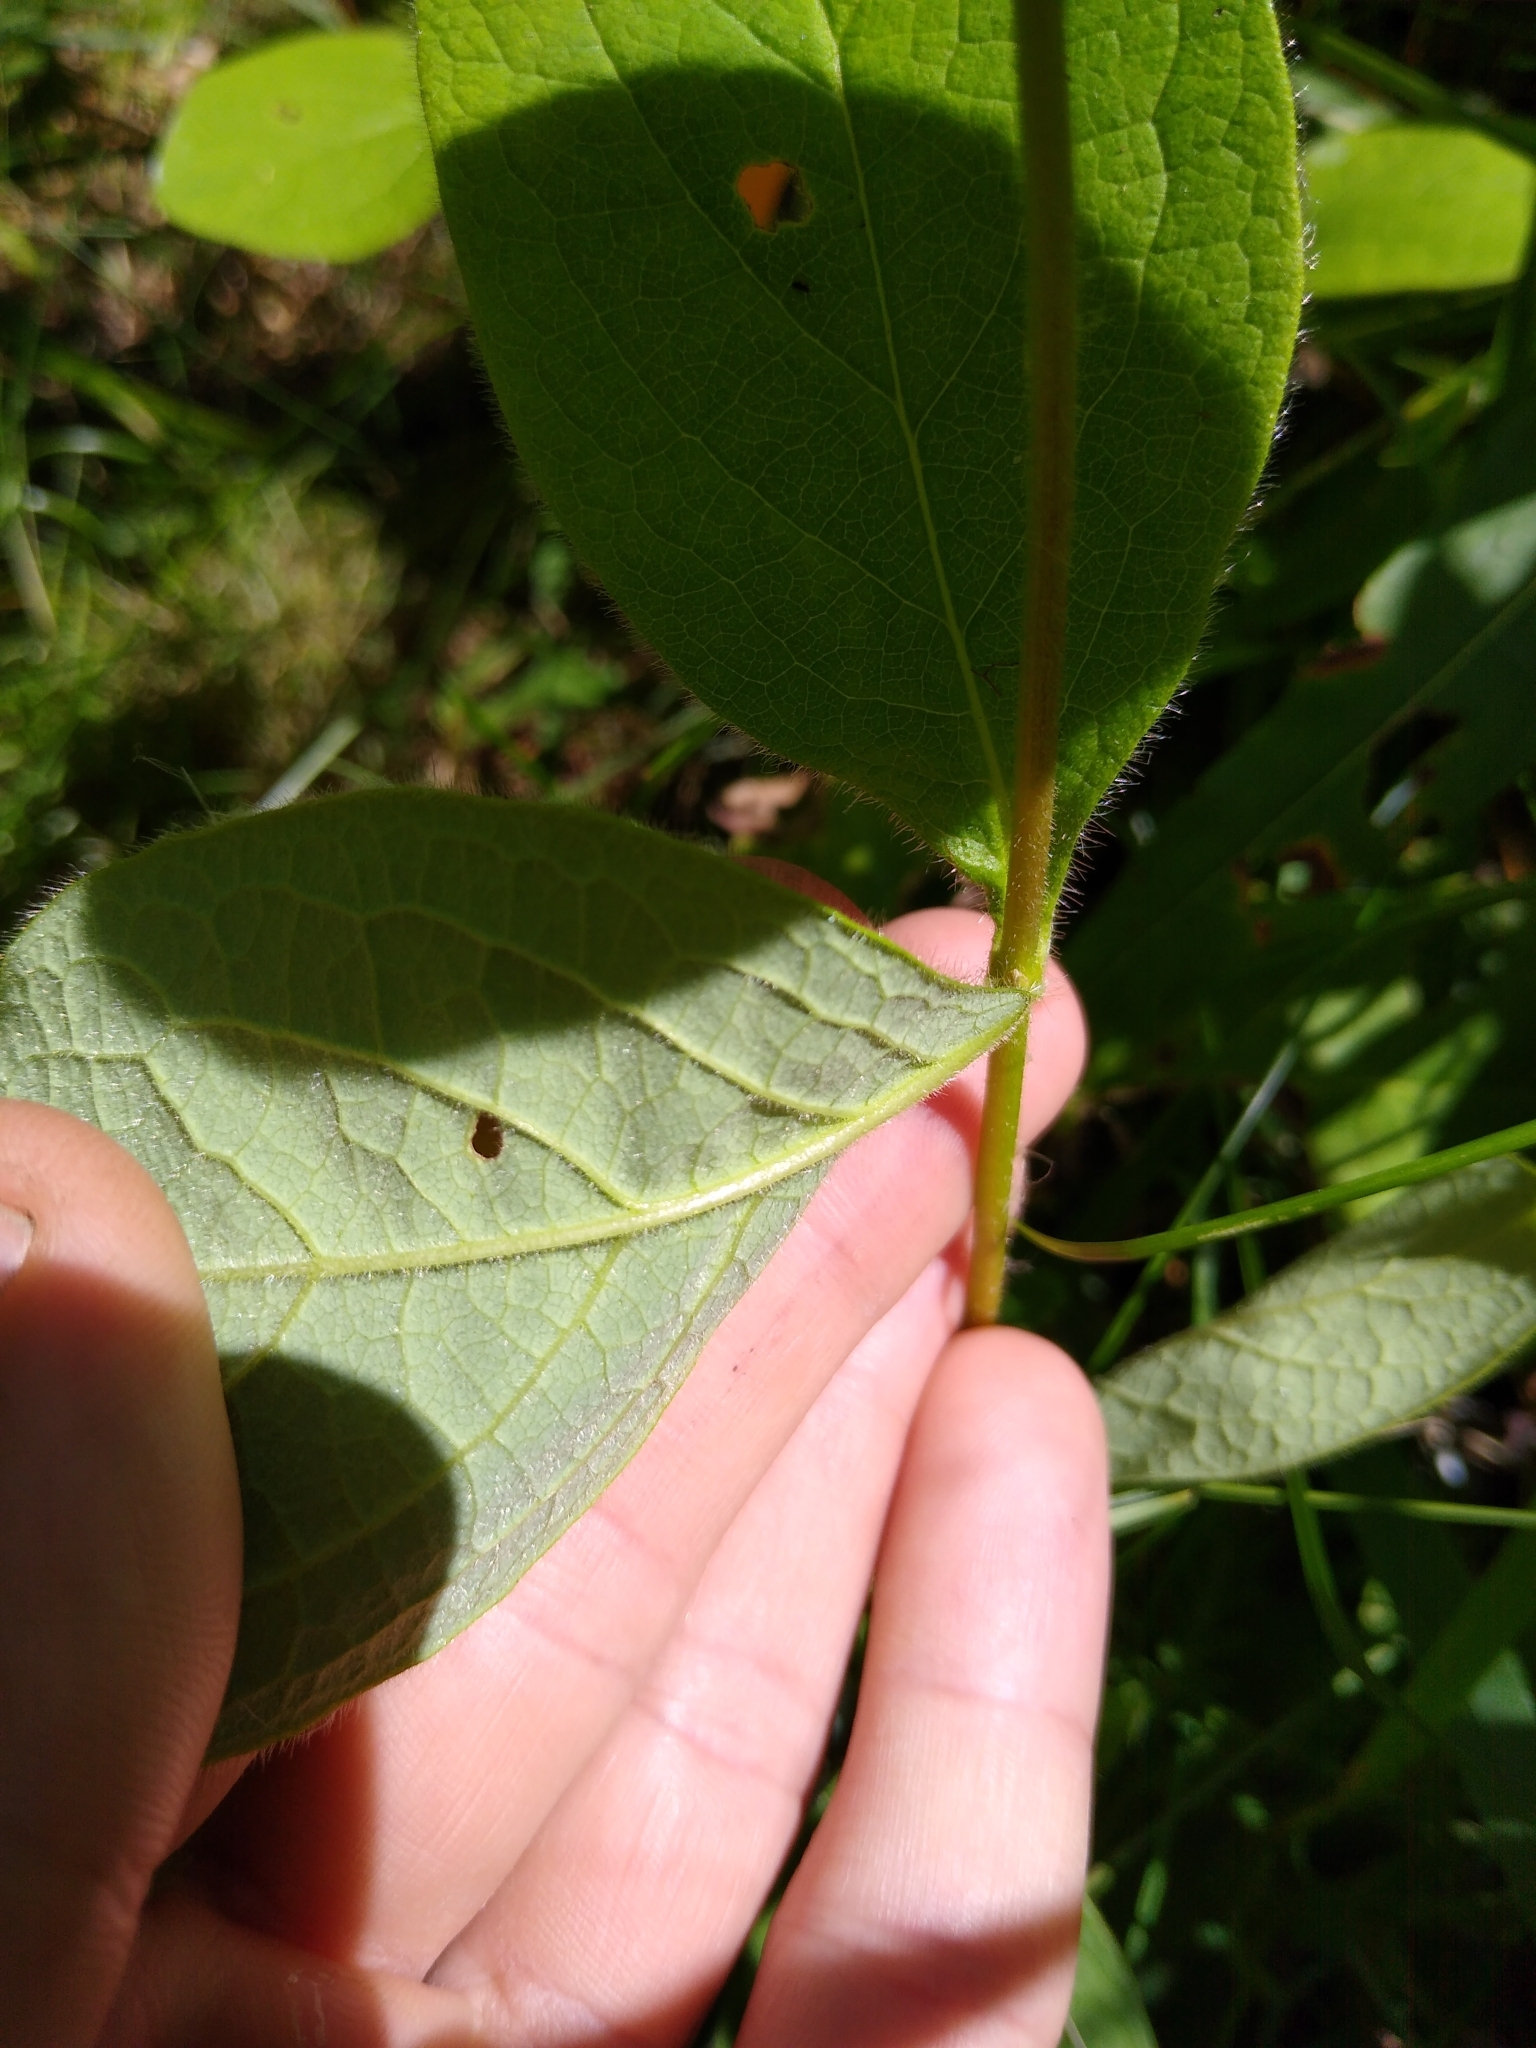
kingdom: Plantae
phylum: Tracheophyta
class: Magnoliopsida
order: Dipsacales
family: Caprifoliaceae
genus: Lonicera
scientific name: Lonicera hirsuta
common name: Hairy honeysuckle
